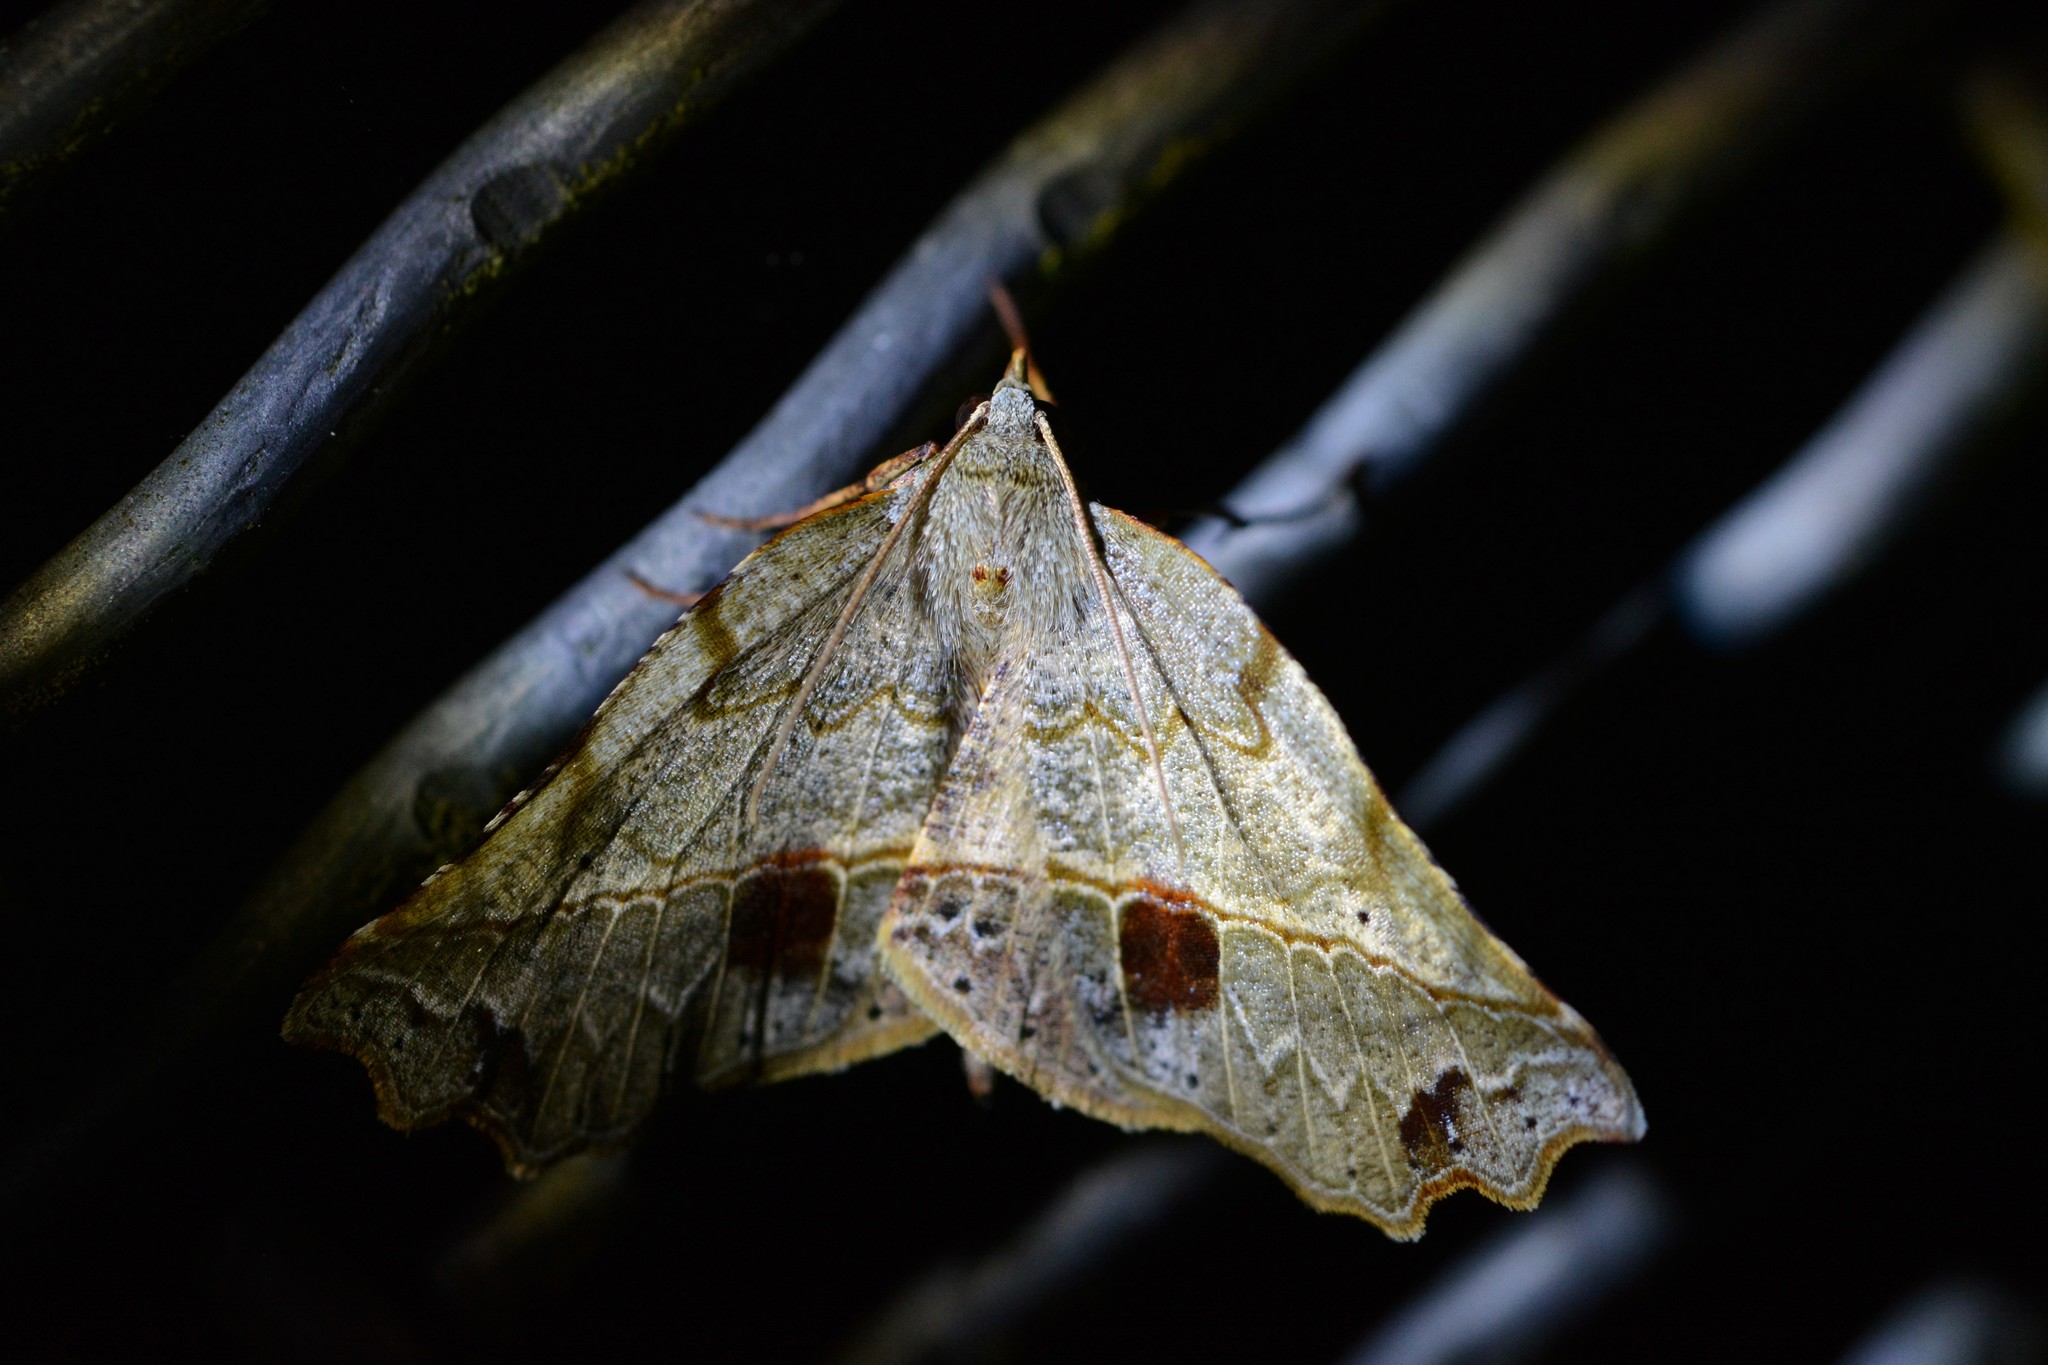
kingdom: Animalia
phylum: Arthropoda
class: Insecta
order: Lepidoptera
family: Geometridae
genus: Ischalis
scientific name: Ischalis gallaria
